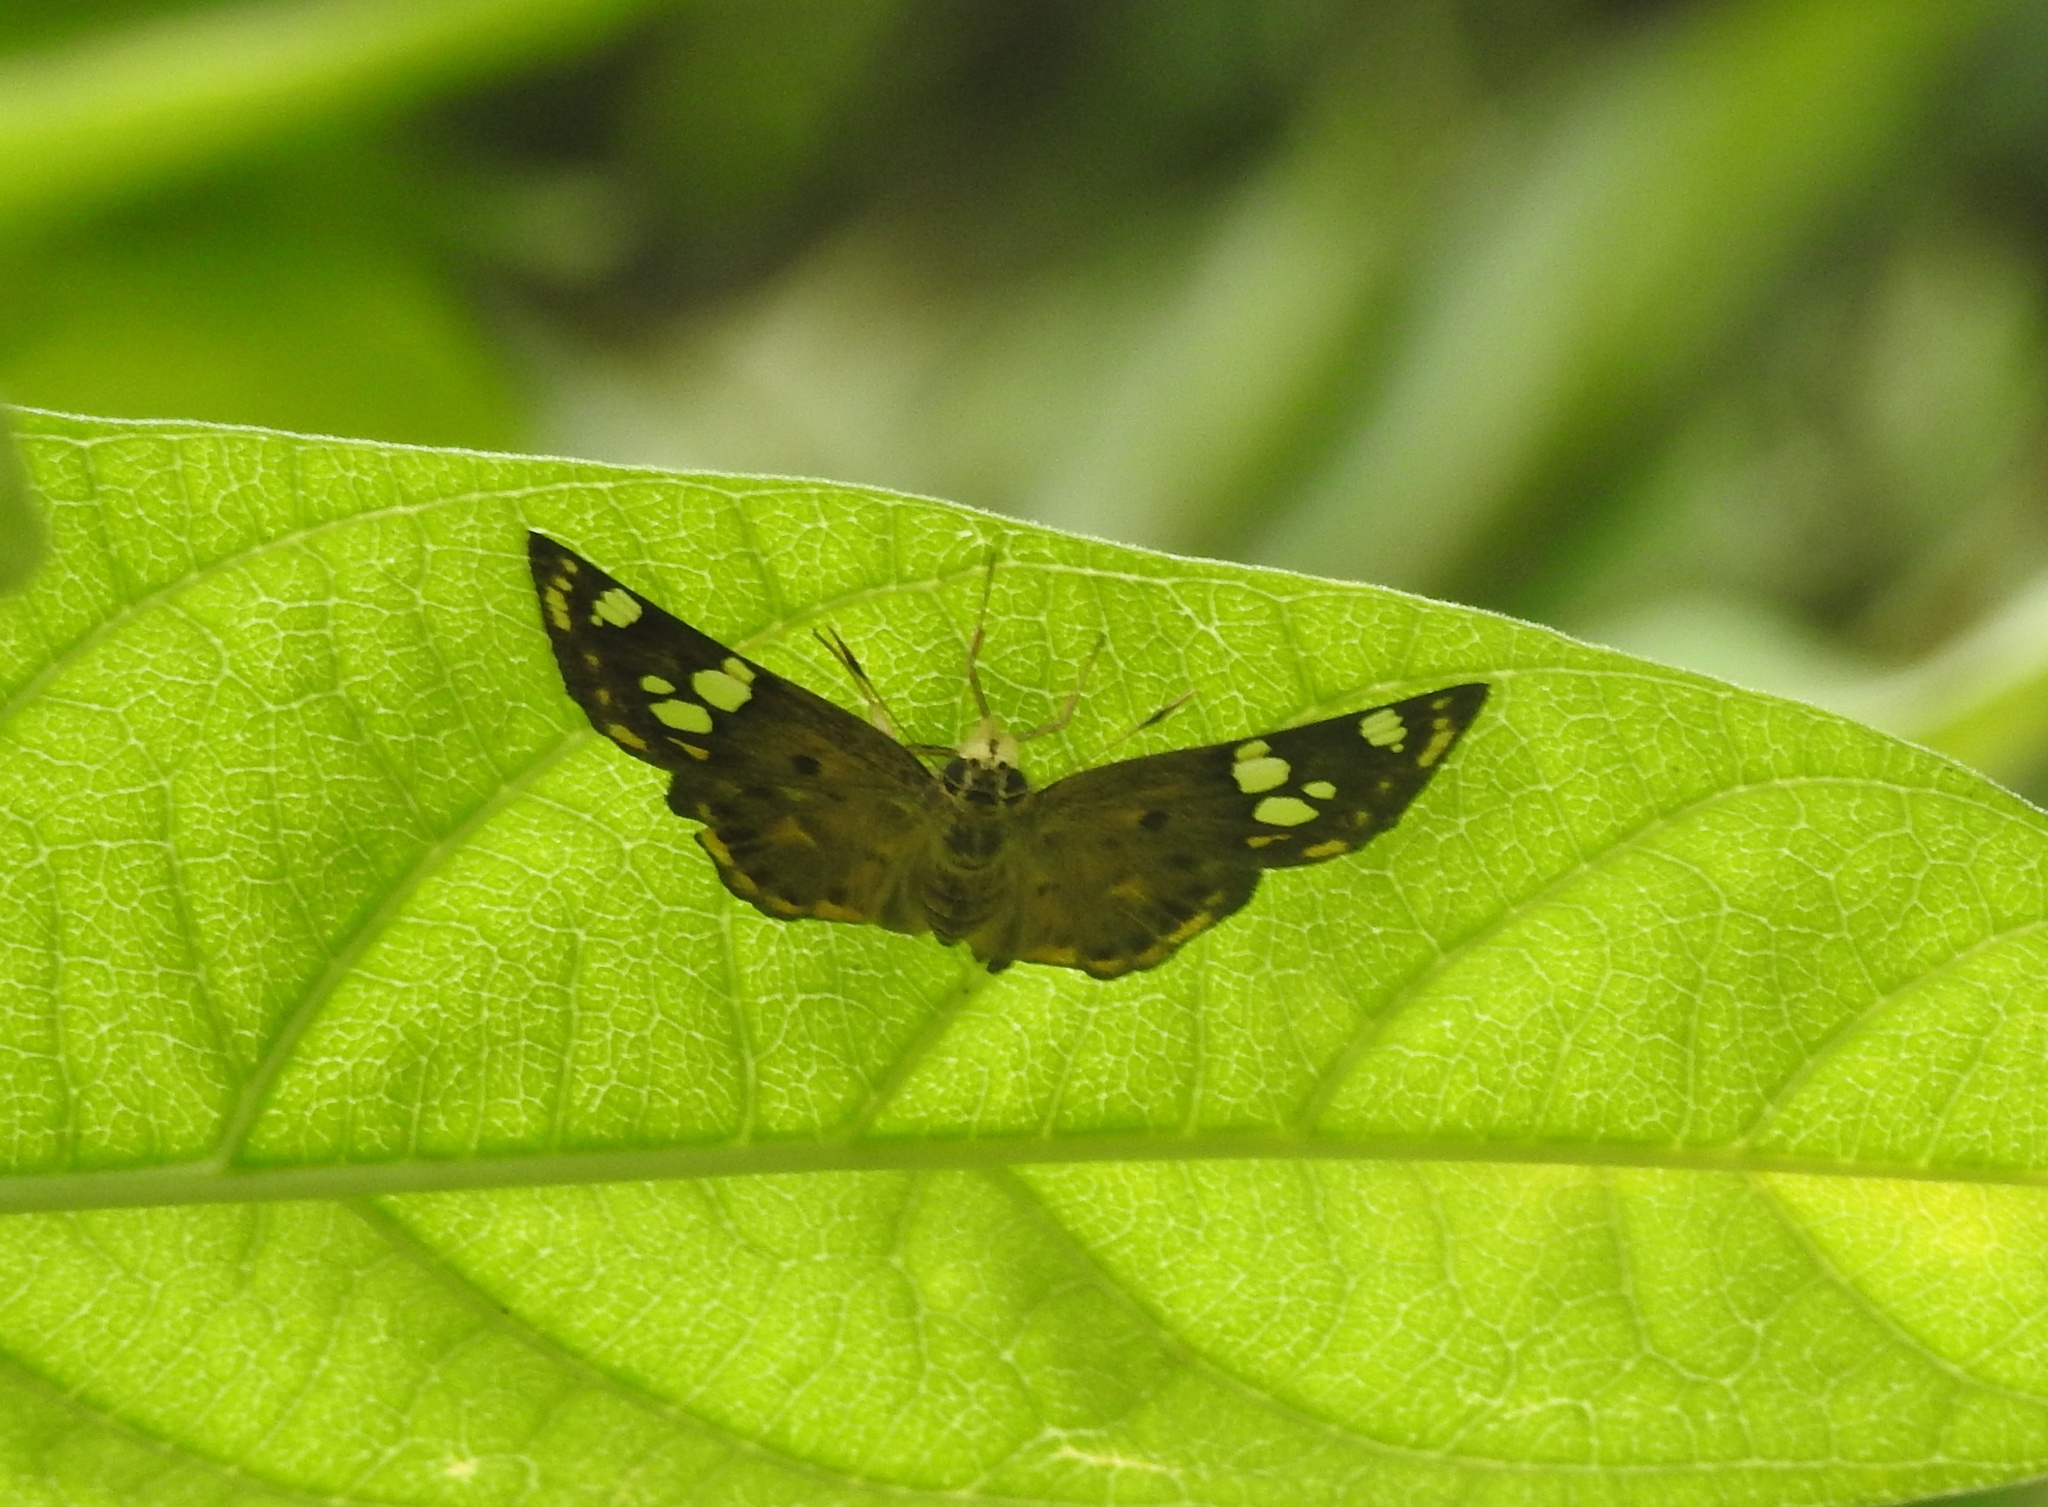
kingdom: Animalia
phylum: Arthropoda
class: Insecta
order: Lepidoptera
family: Hesperiidae
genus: Coladenia
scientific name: Coladenia
